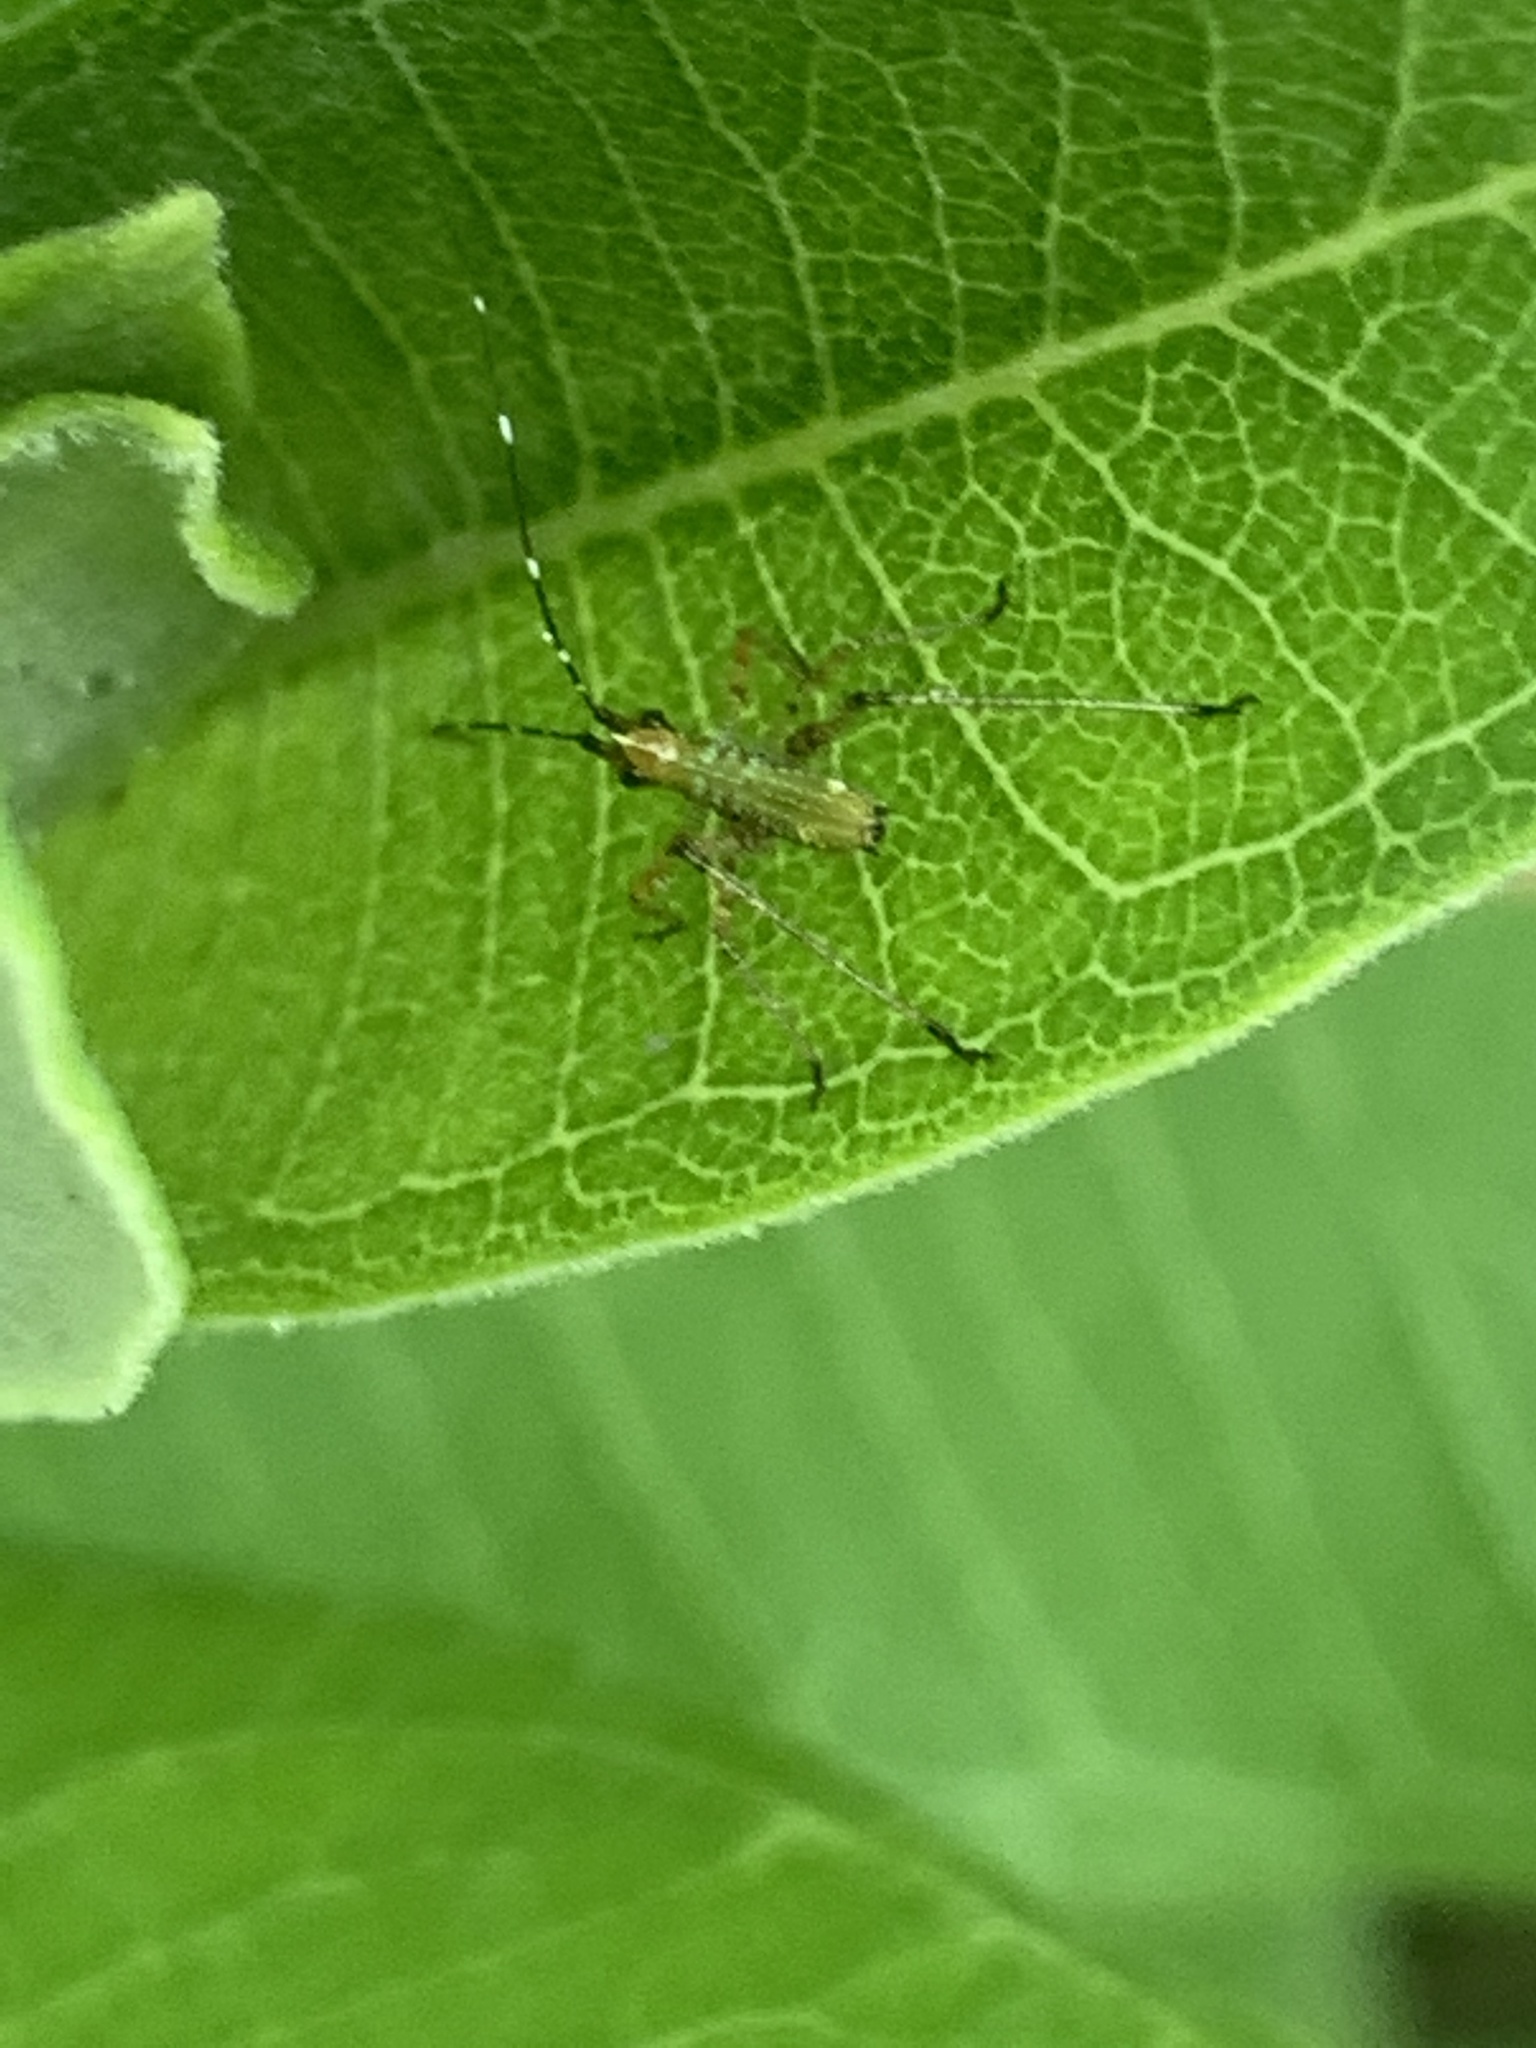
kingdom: Animalia
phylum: Arthropoda
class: Insecta
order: Orthoptera
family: Tettigoniidae
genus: Scudderia
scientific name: Scudderia furcata
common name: Fork-tailed bush katydid
